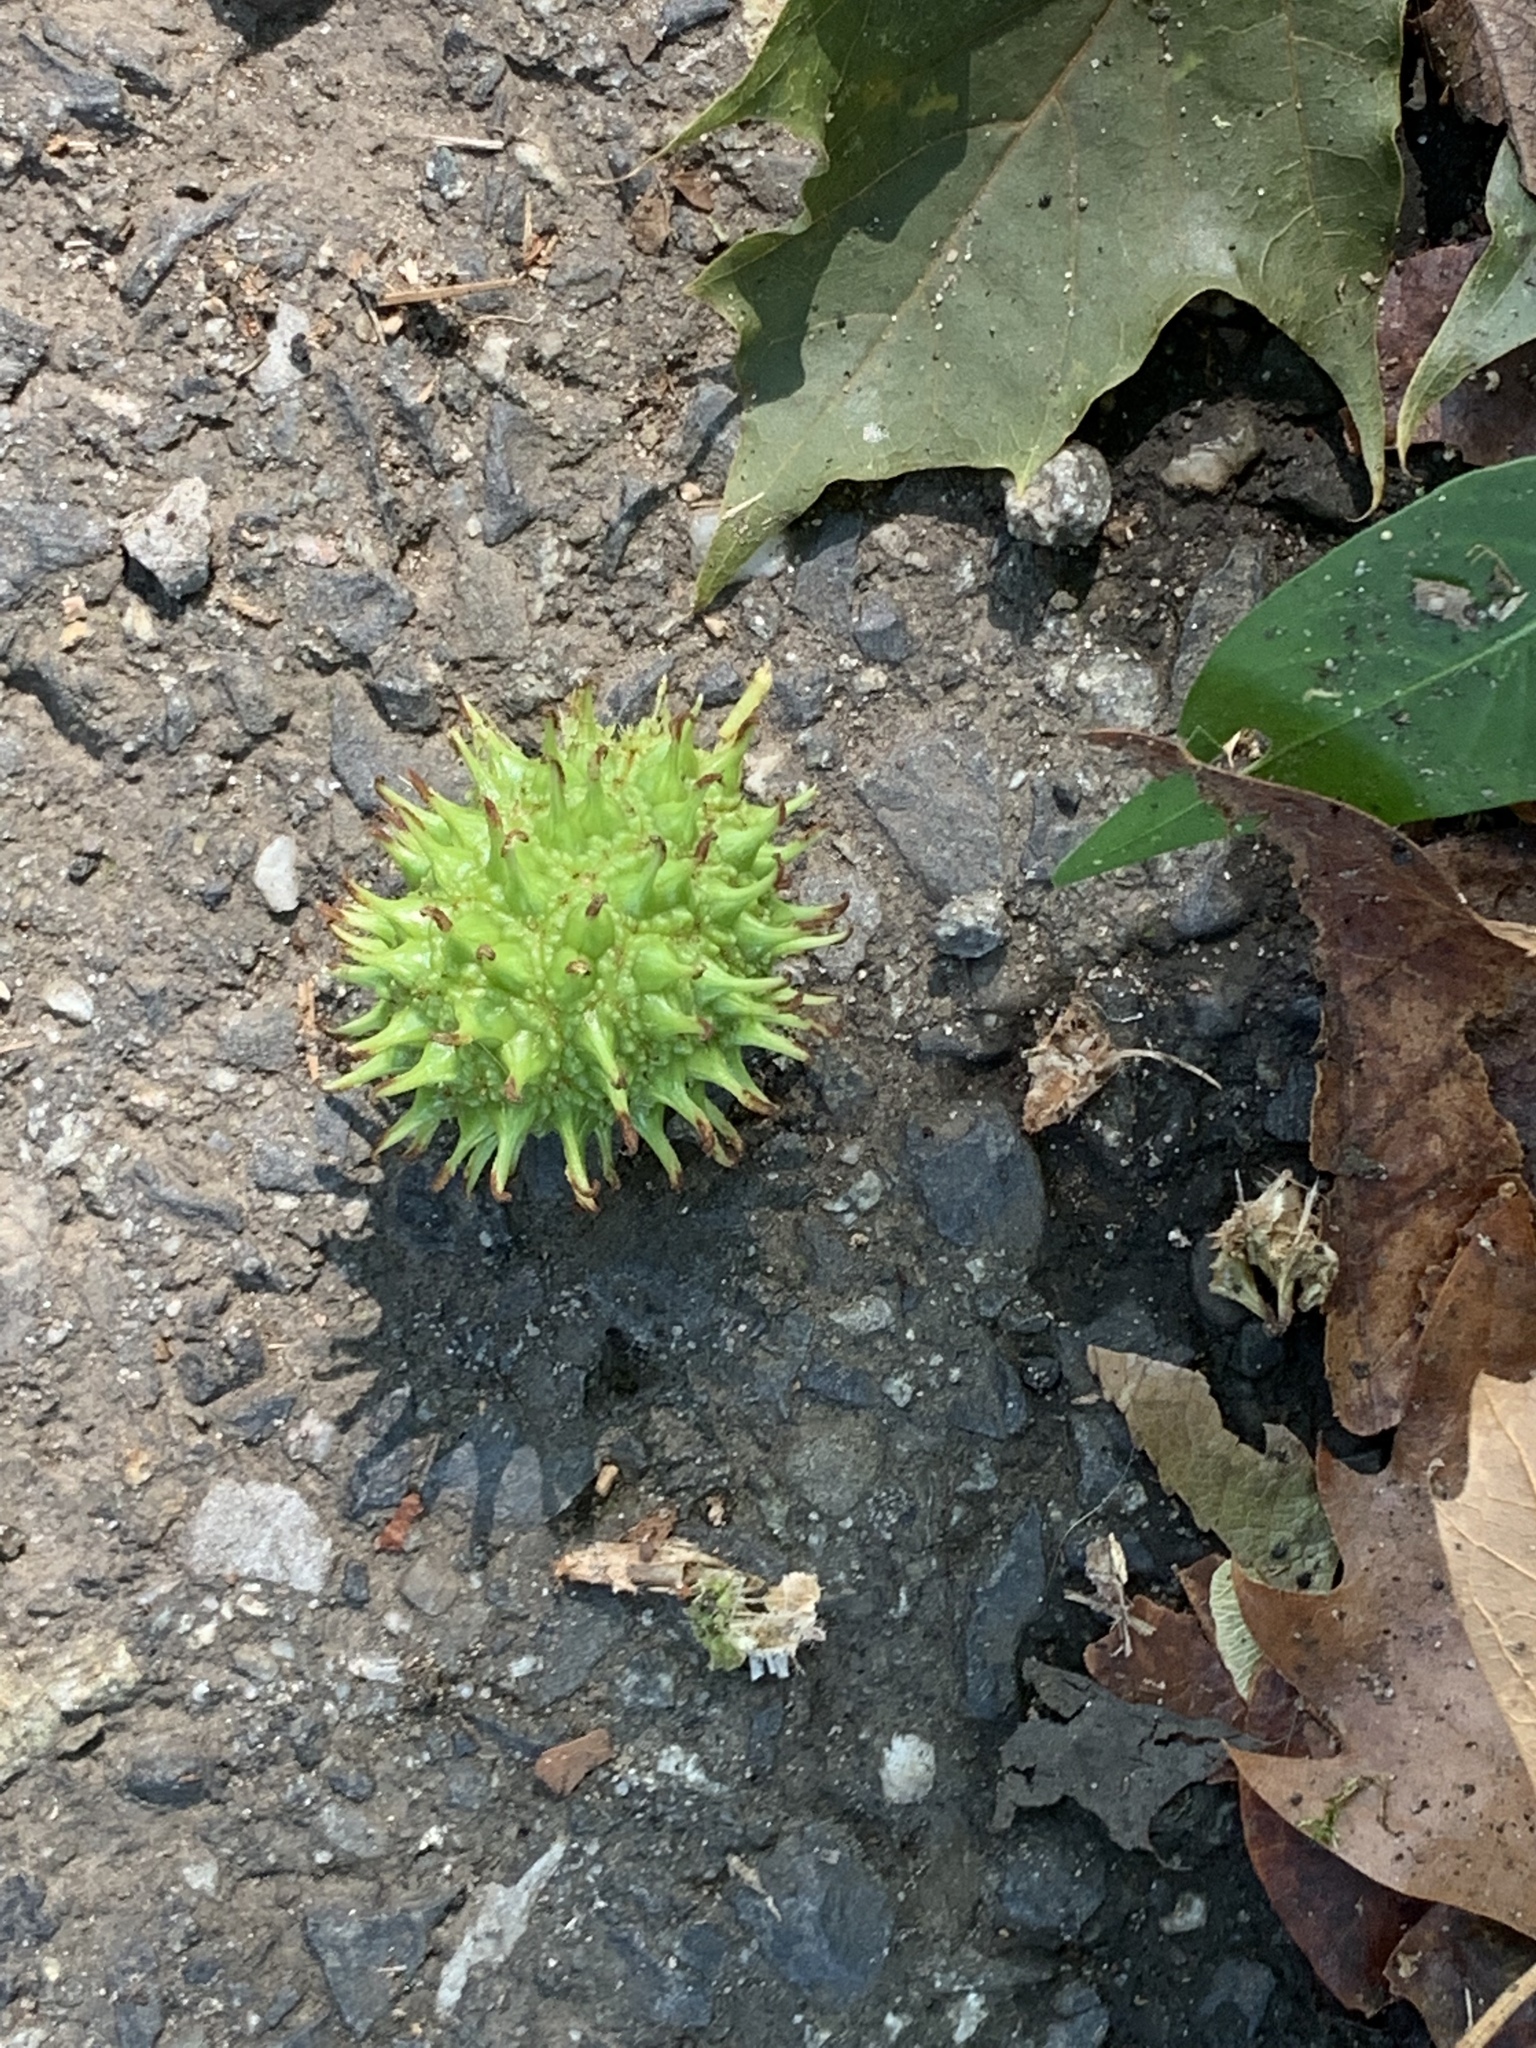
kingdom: Plantae
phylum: Tracheophyta
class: Magnoliopsida
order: Saxifragales
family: Altingiaceae
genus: Liquidambar
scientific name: Liquidambar styraciflua
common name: Sweet gum
